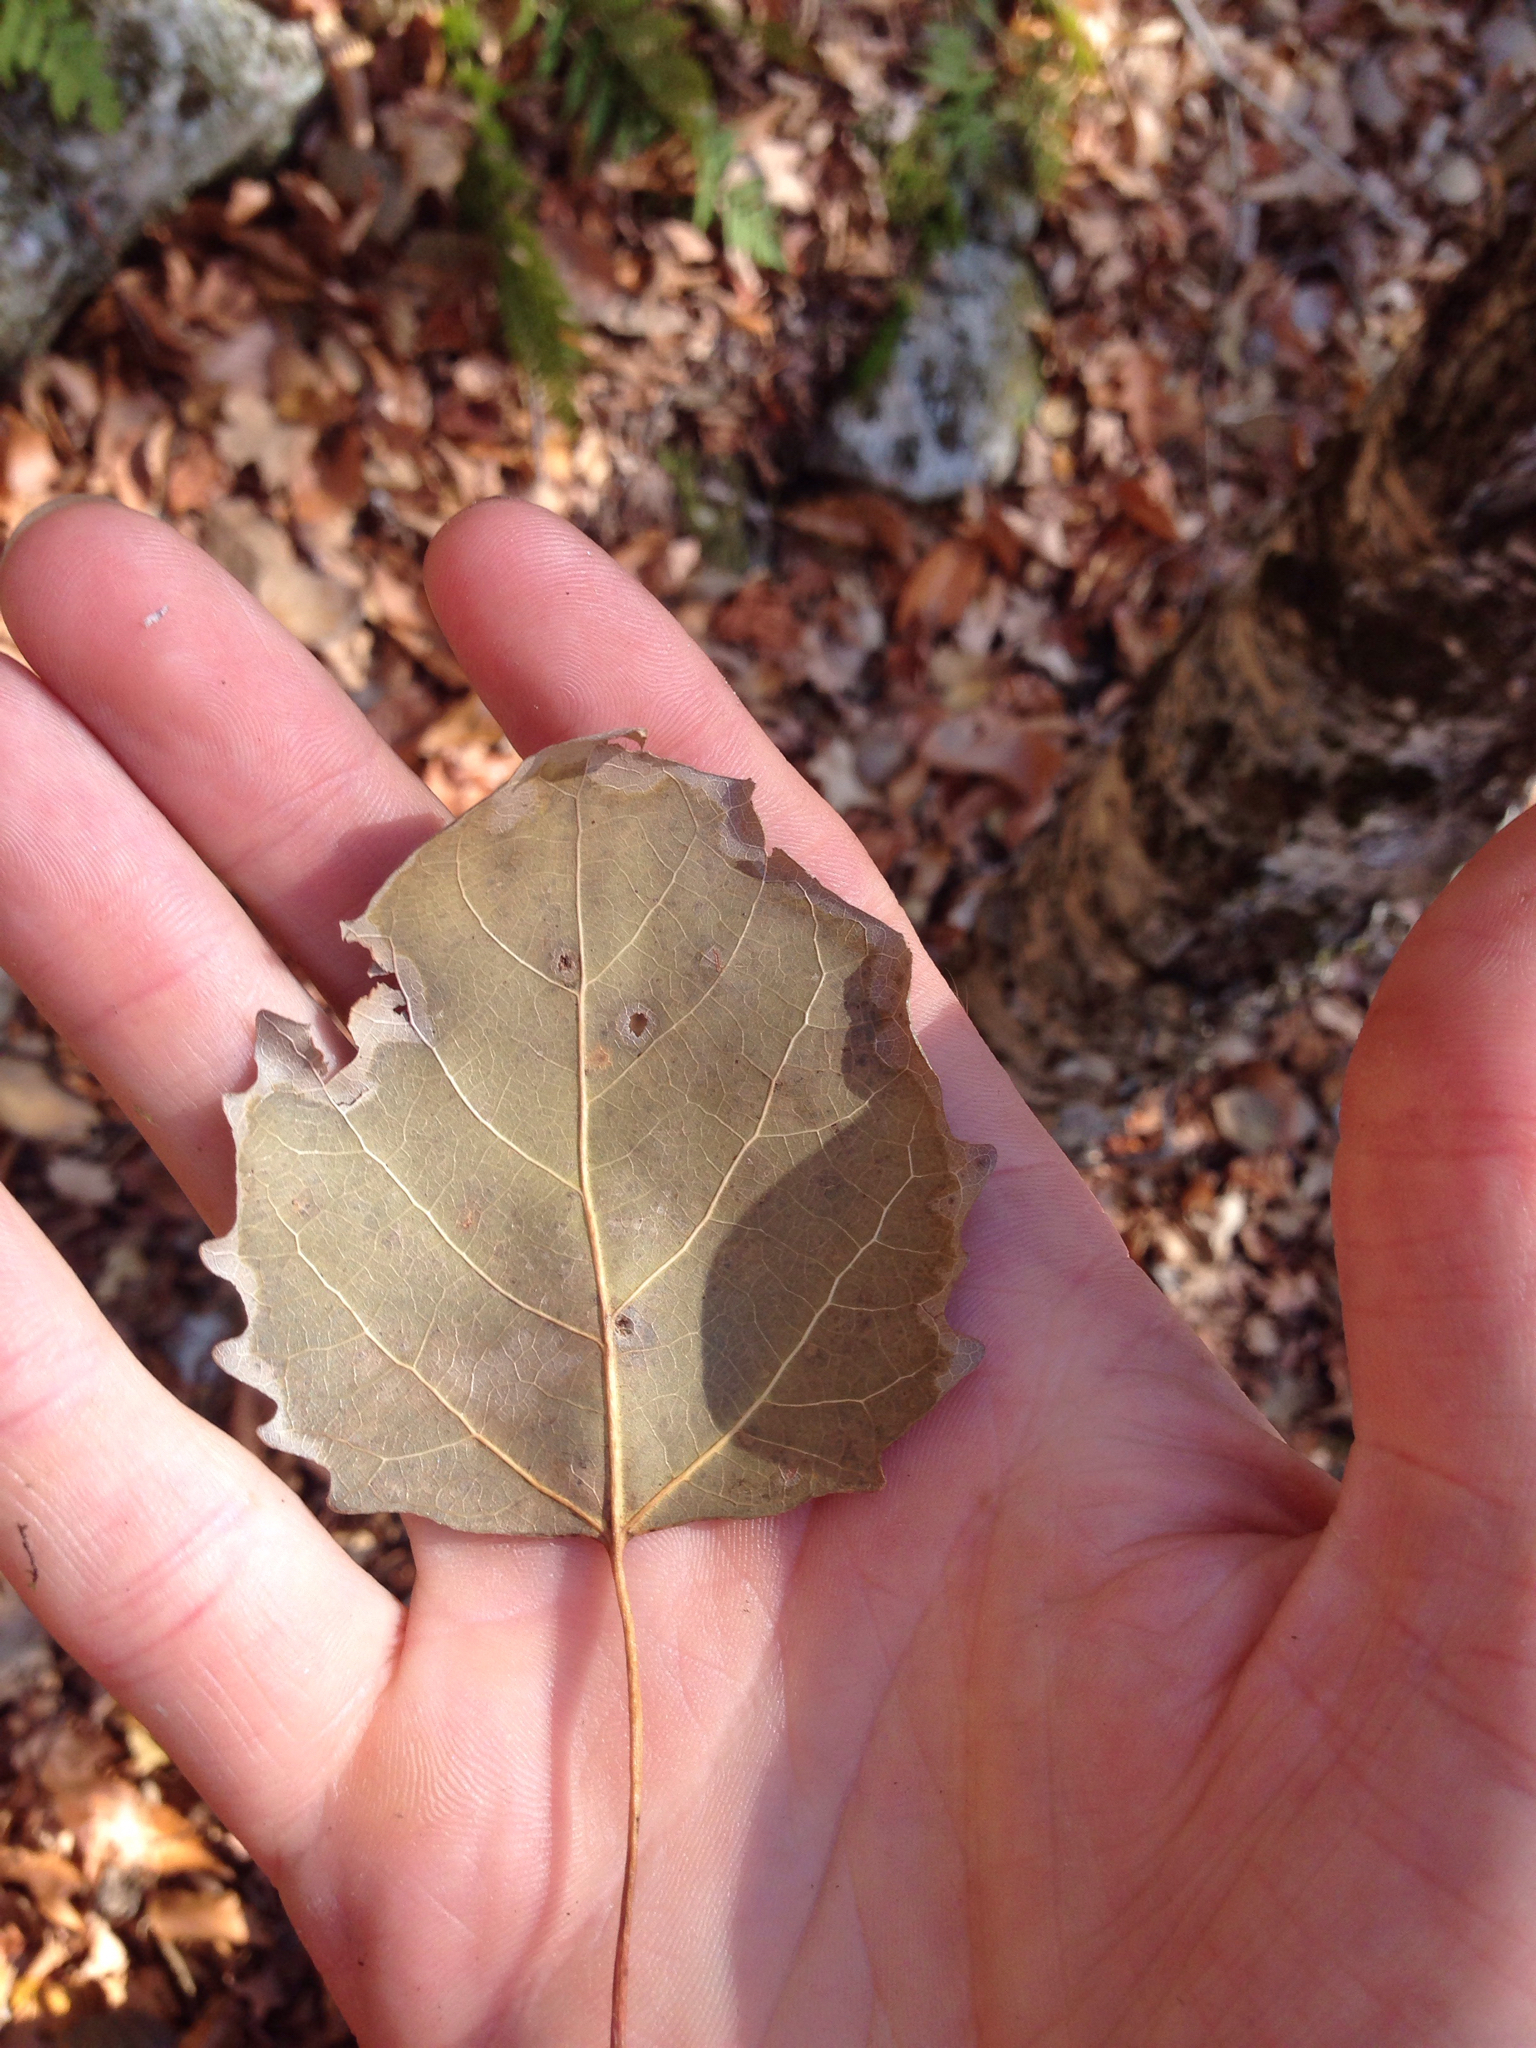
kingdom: Plantae
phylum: Tracheophyta
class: Magnoliopsida
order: Malpighiales
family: Salicaceae
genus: Populus
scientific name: Populus grandidentata
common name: Bigtooth aspen
